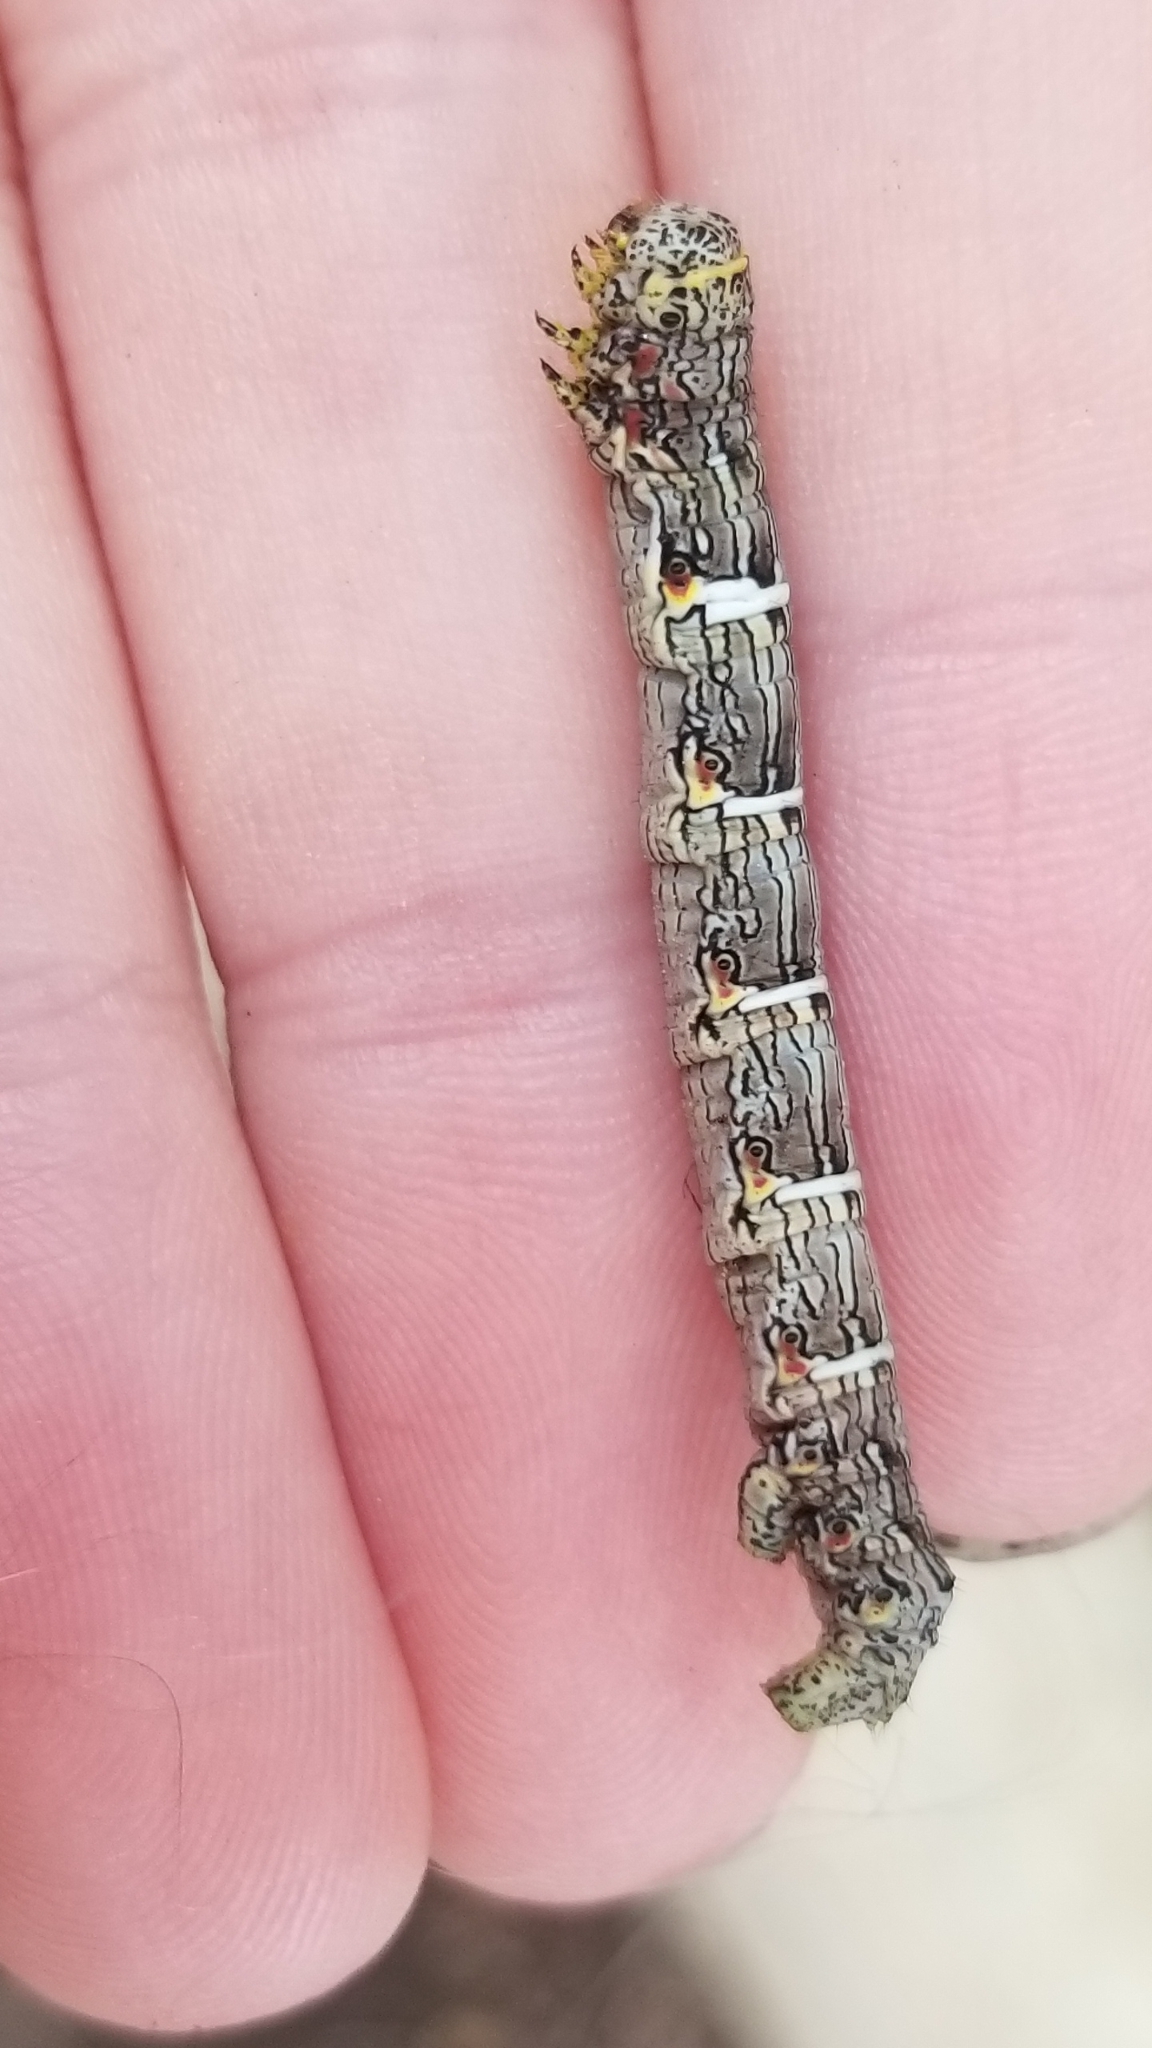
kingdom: Animalia
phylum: Arthropoda
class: Insecta
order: Lepidoptera
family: Geometridae
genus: Lycia
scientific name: Lycia ypsilon
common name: Wooly gray
